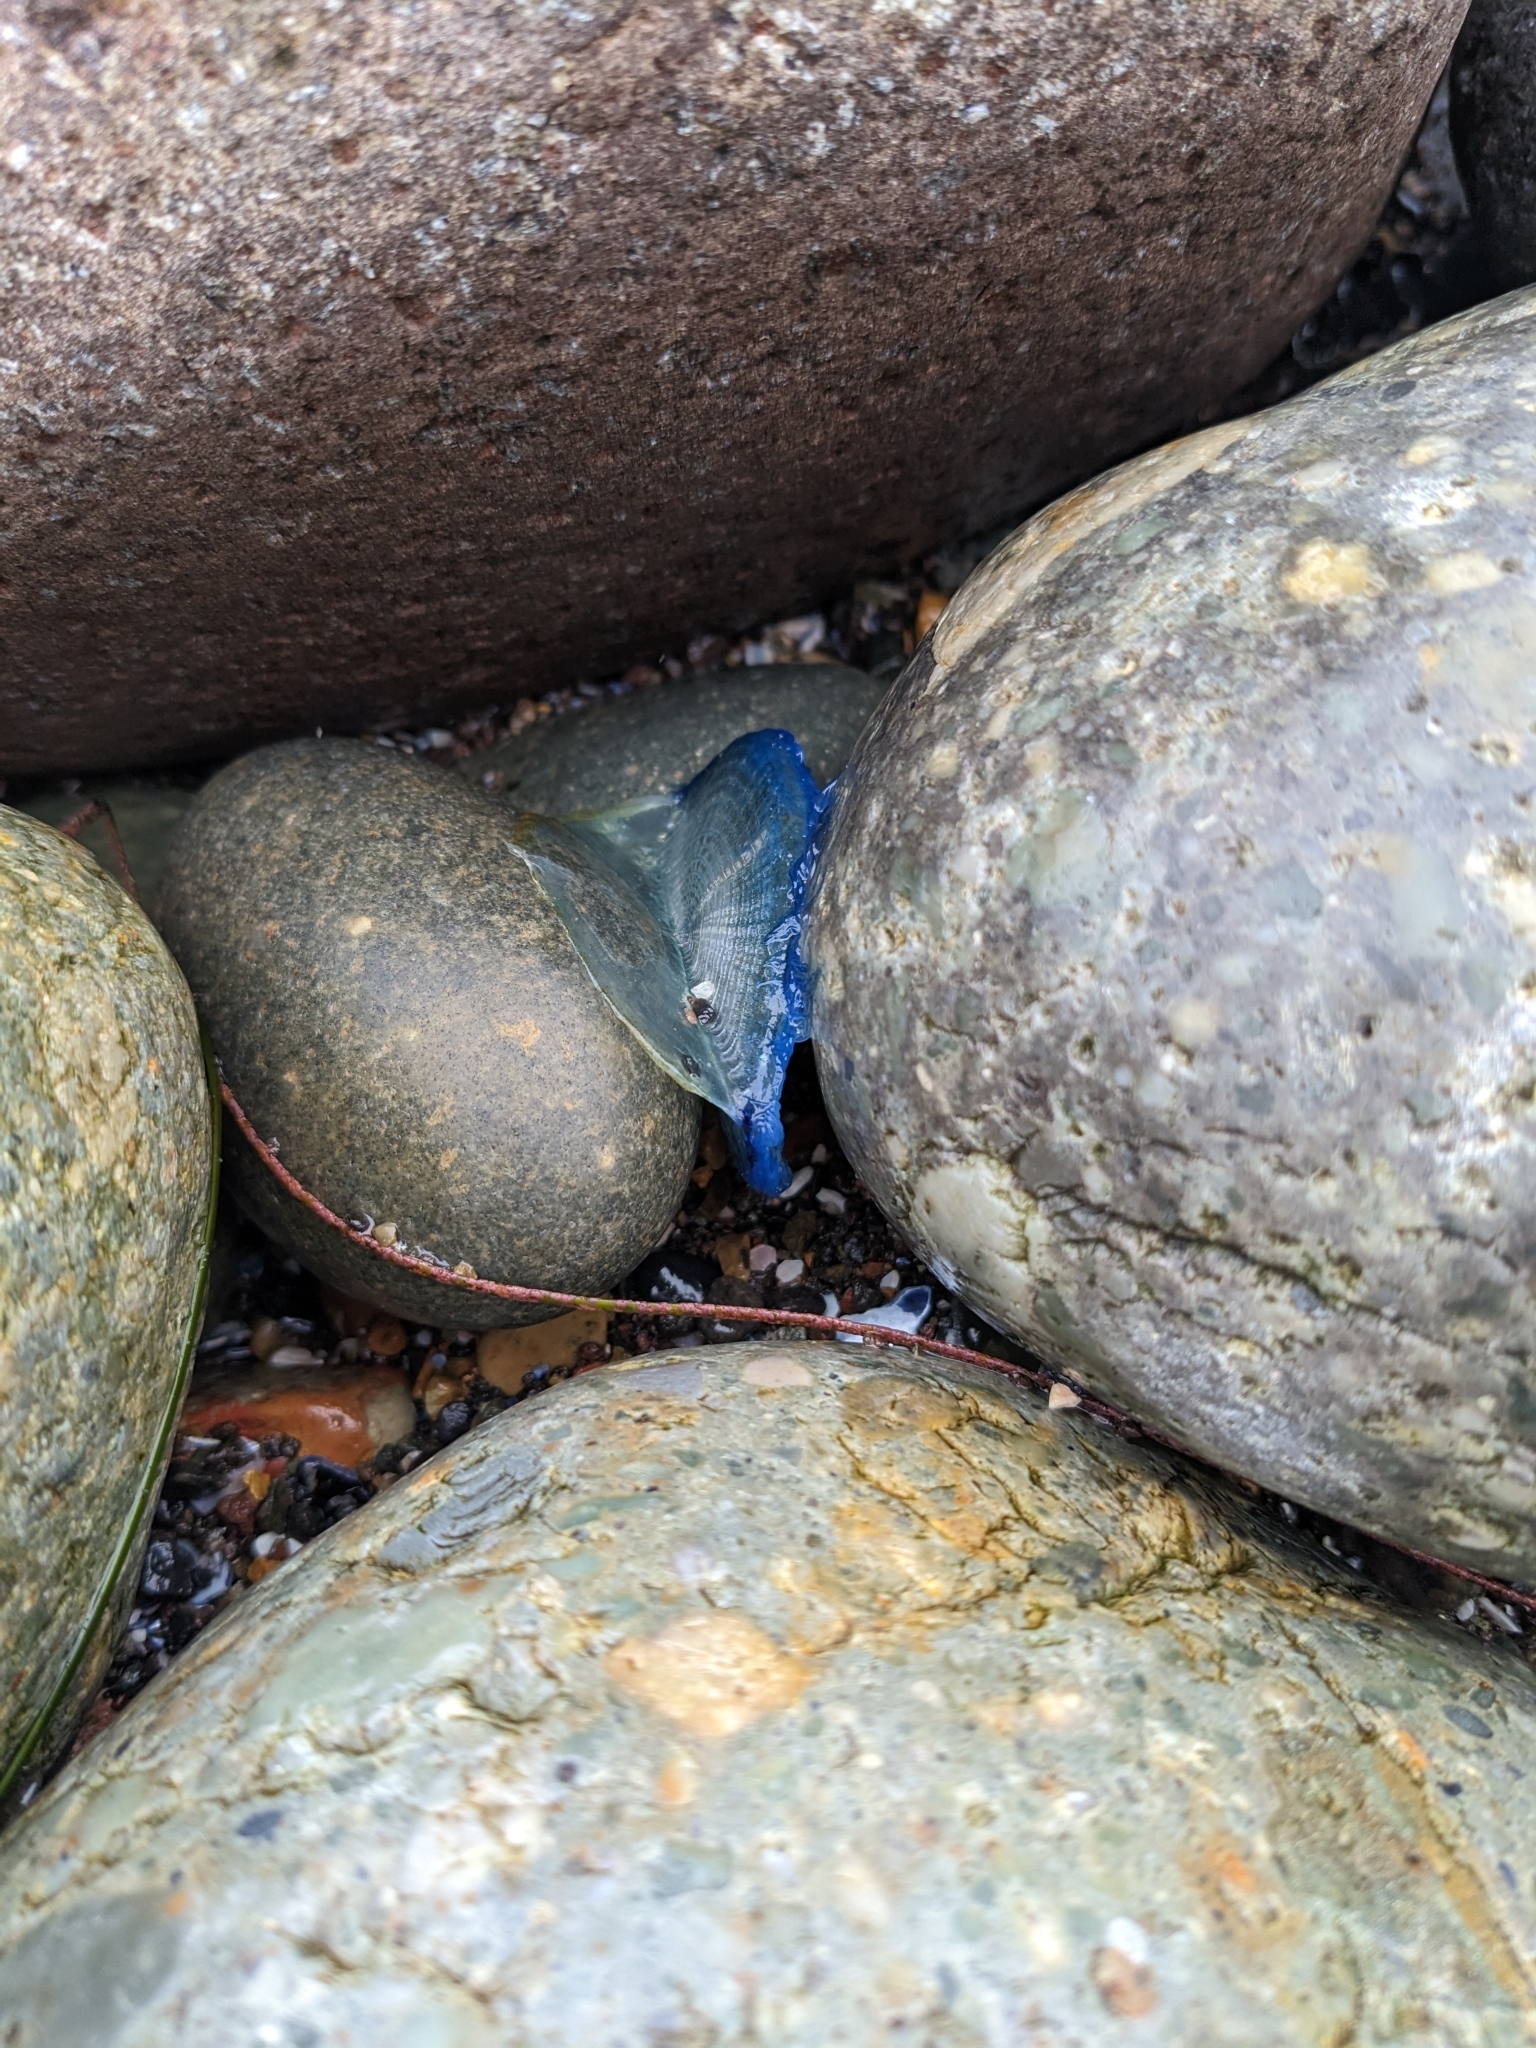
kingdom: Animalia
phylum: Cnidaria
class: Hydrozoa
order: Anthoathecata
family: Porpitidae
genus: Velella
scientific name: Velella velella
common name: By-the-wind-sailor
